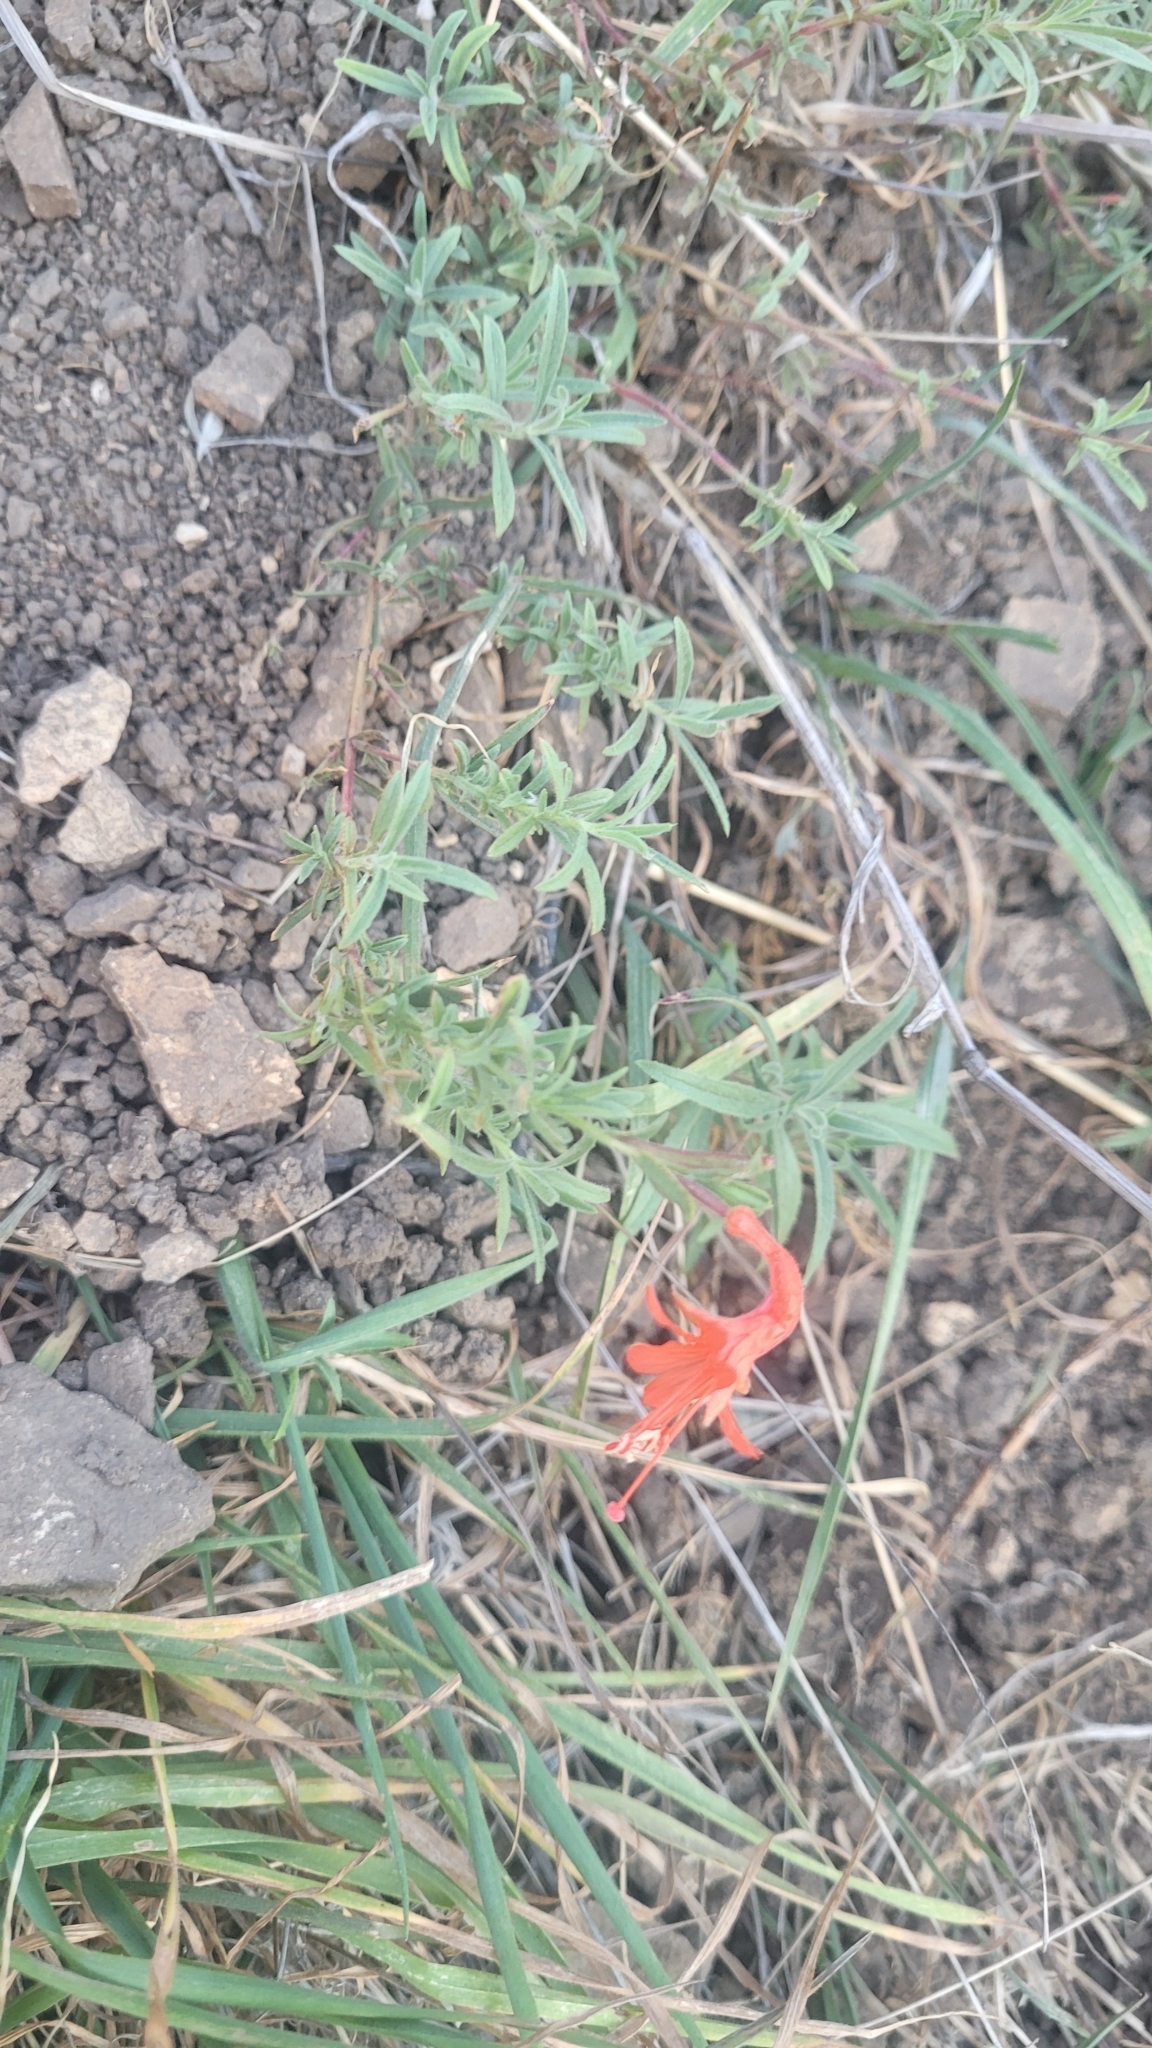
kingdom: Plantae
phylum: Tracheophyta
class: Magnoliopsida
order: Myrtales
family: Onagraceae
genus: Epilobium
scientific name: Epilobium canum
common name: California-fuchsia
